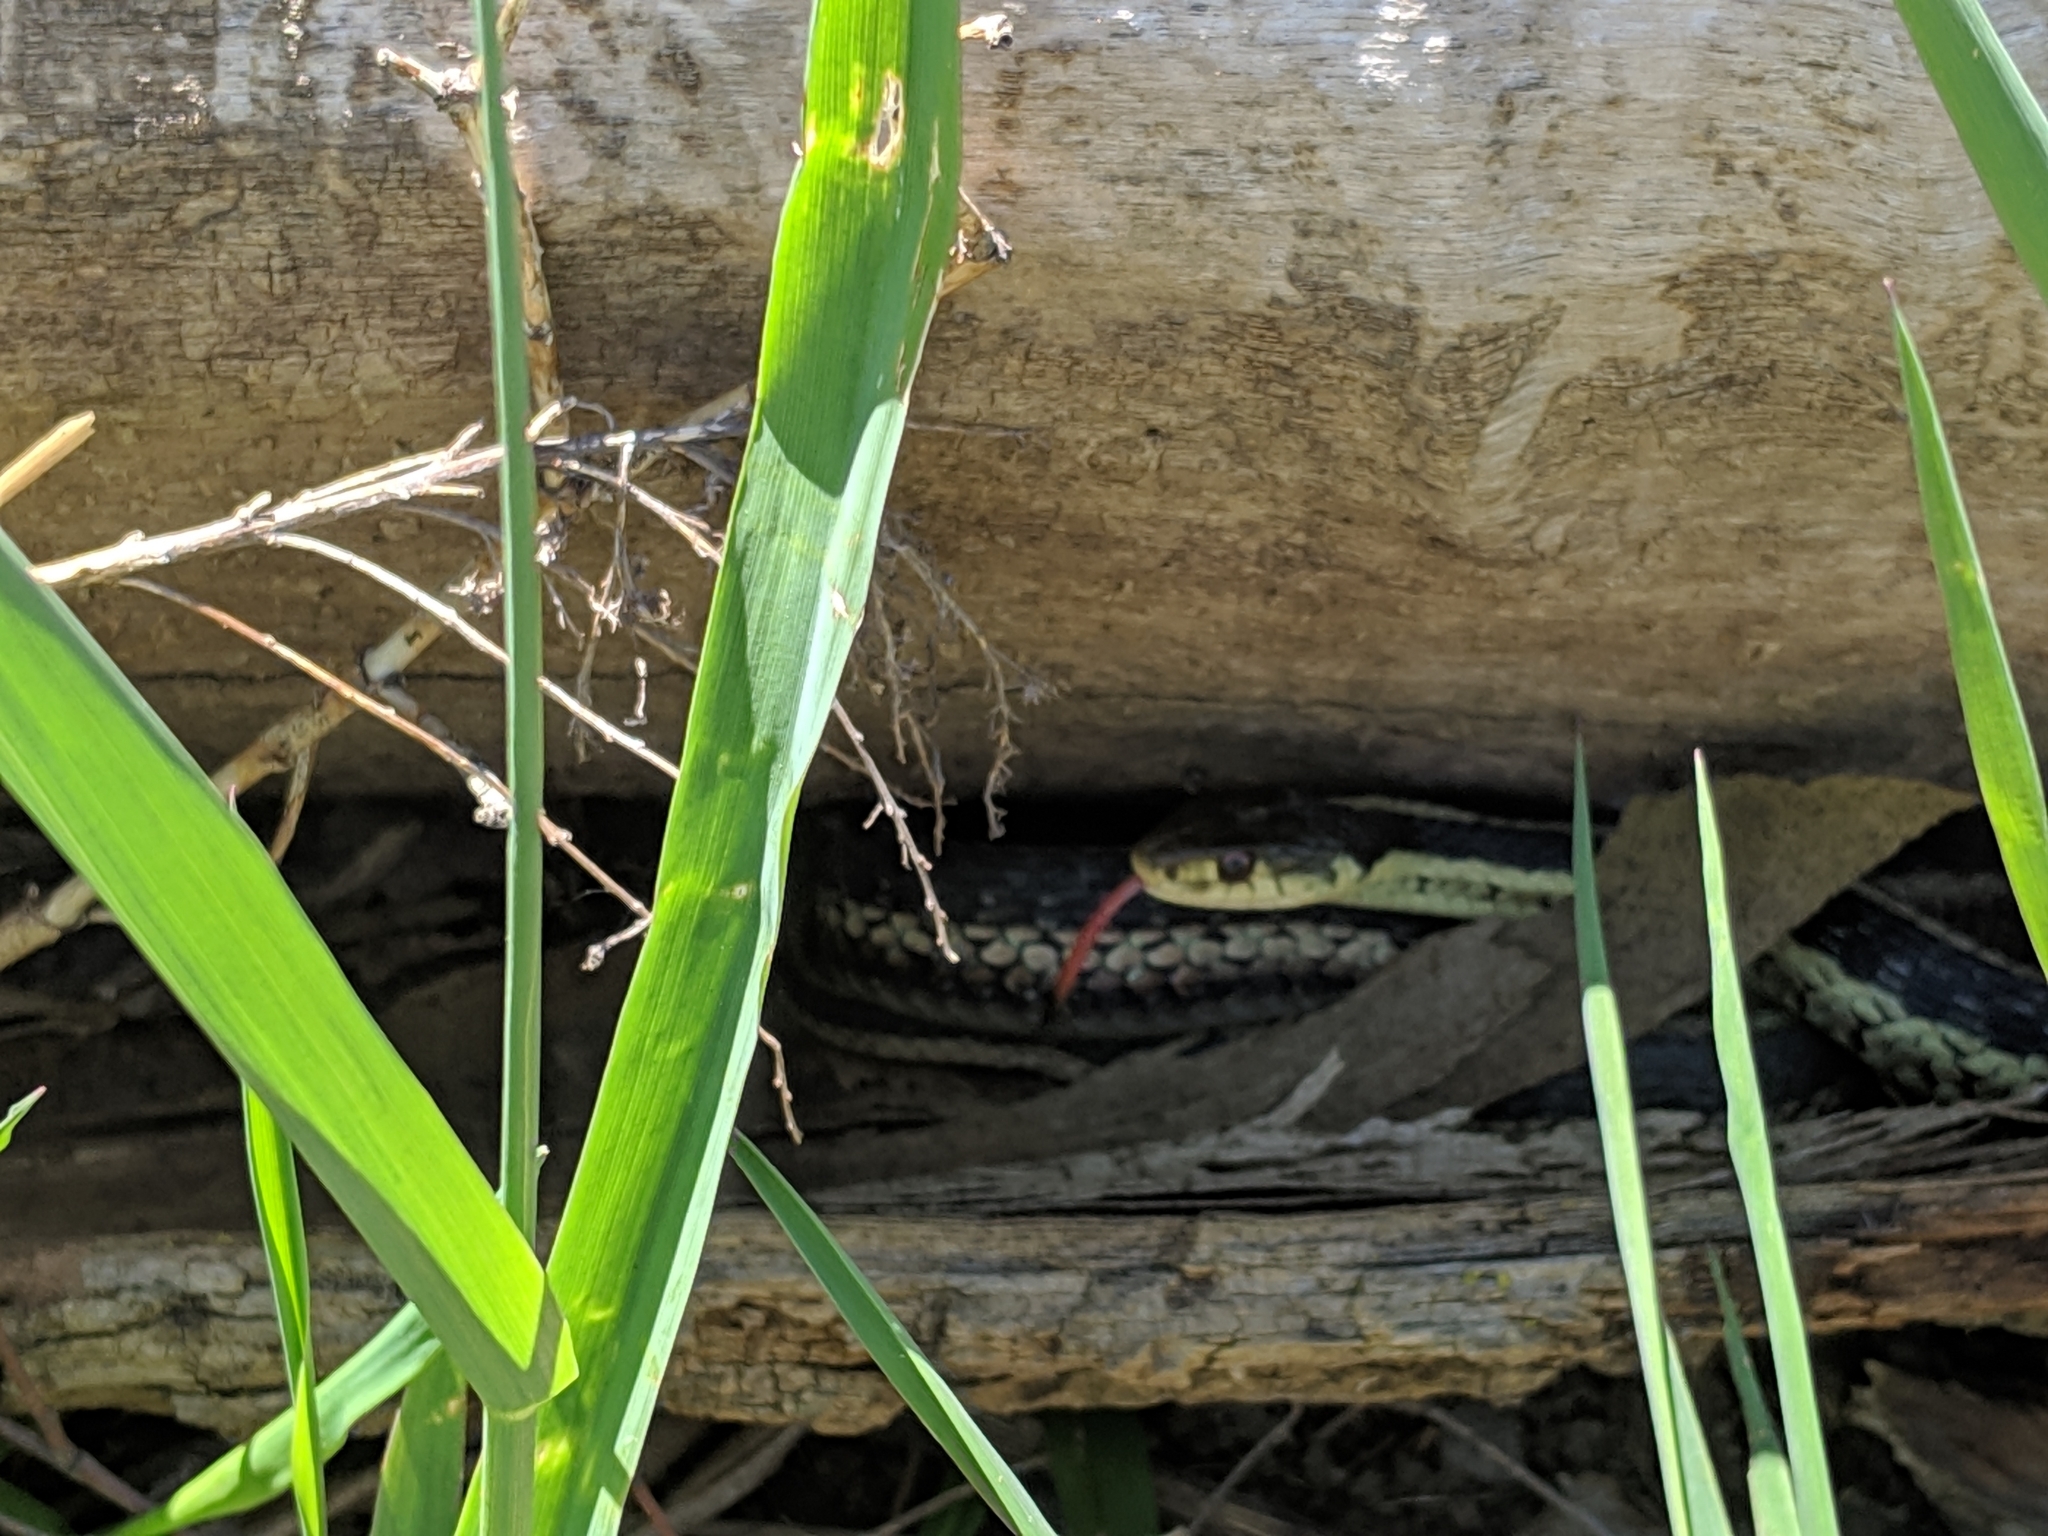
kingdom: Animalia
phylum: Chordata
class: Squamata
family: Colubridae
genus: Thamnophis
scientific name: Thamnophis sirtalis
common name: Common garter snake
